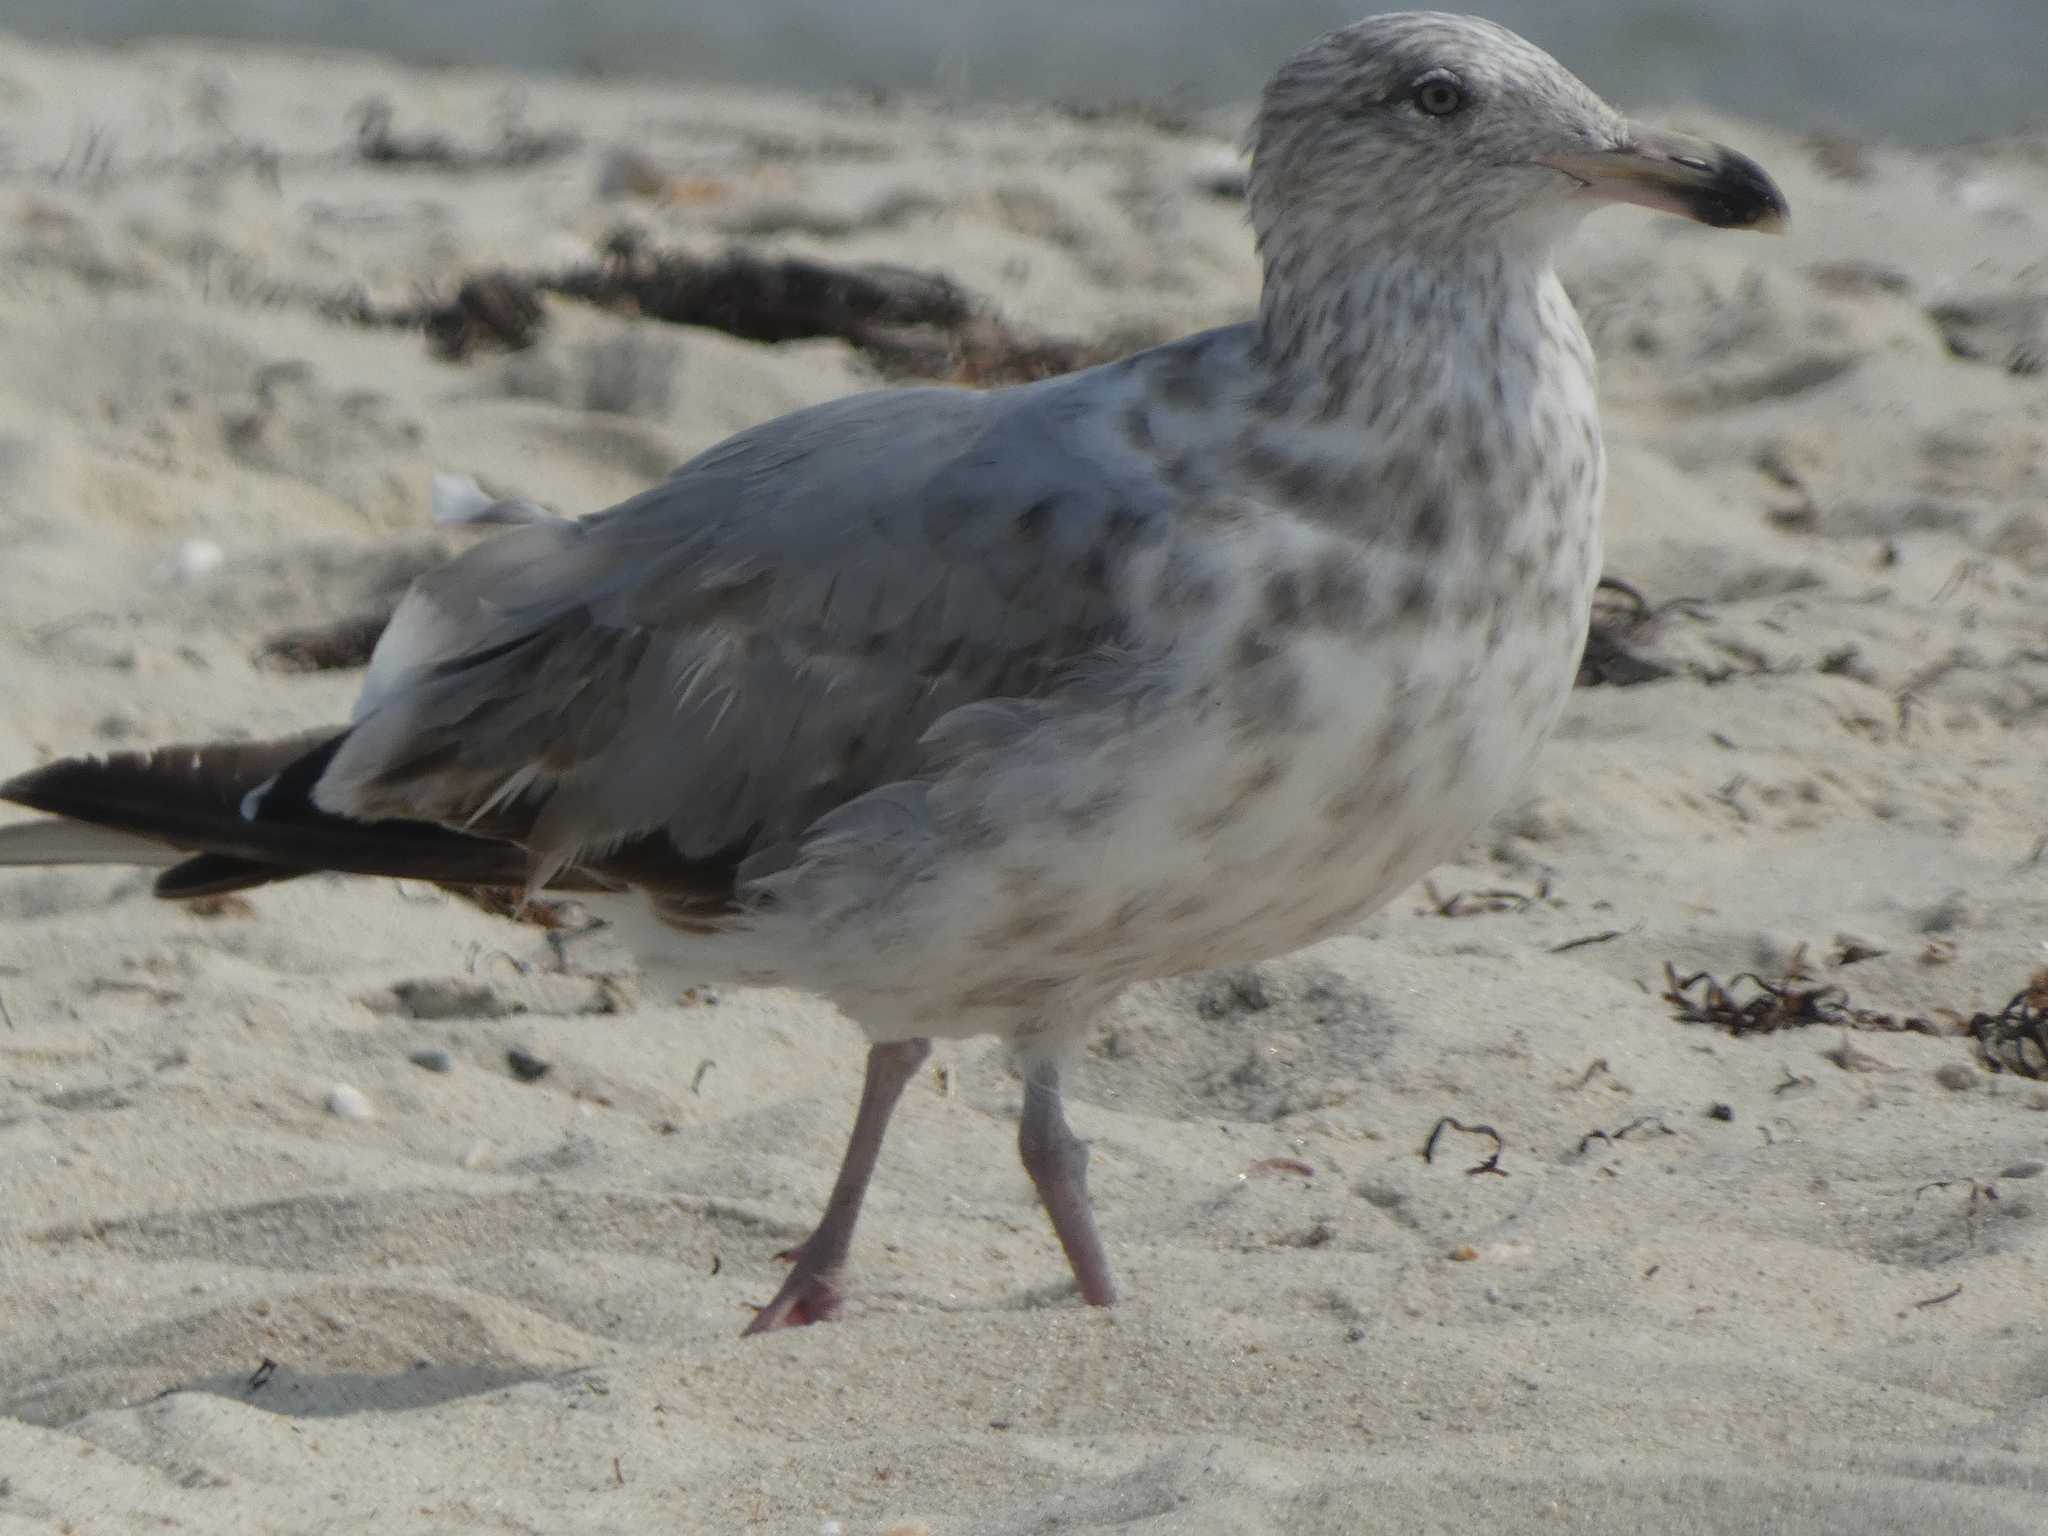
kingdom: Animalia
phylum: Chordata
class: Aves
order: Charadriiformes
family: Laridae
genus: Larus
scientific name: Larus argentatus
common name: Herring gull
